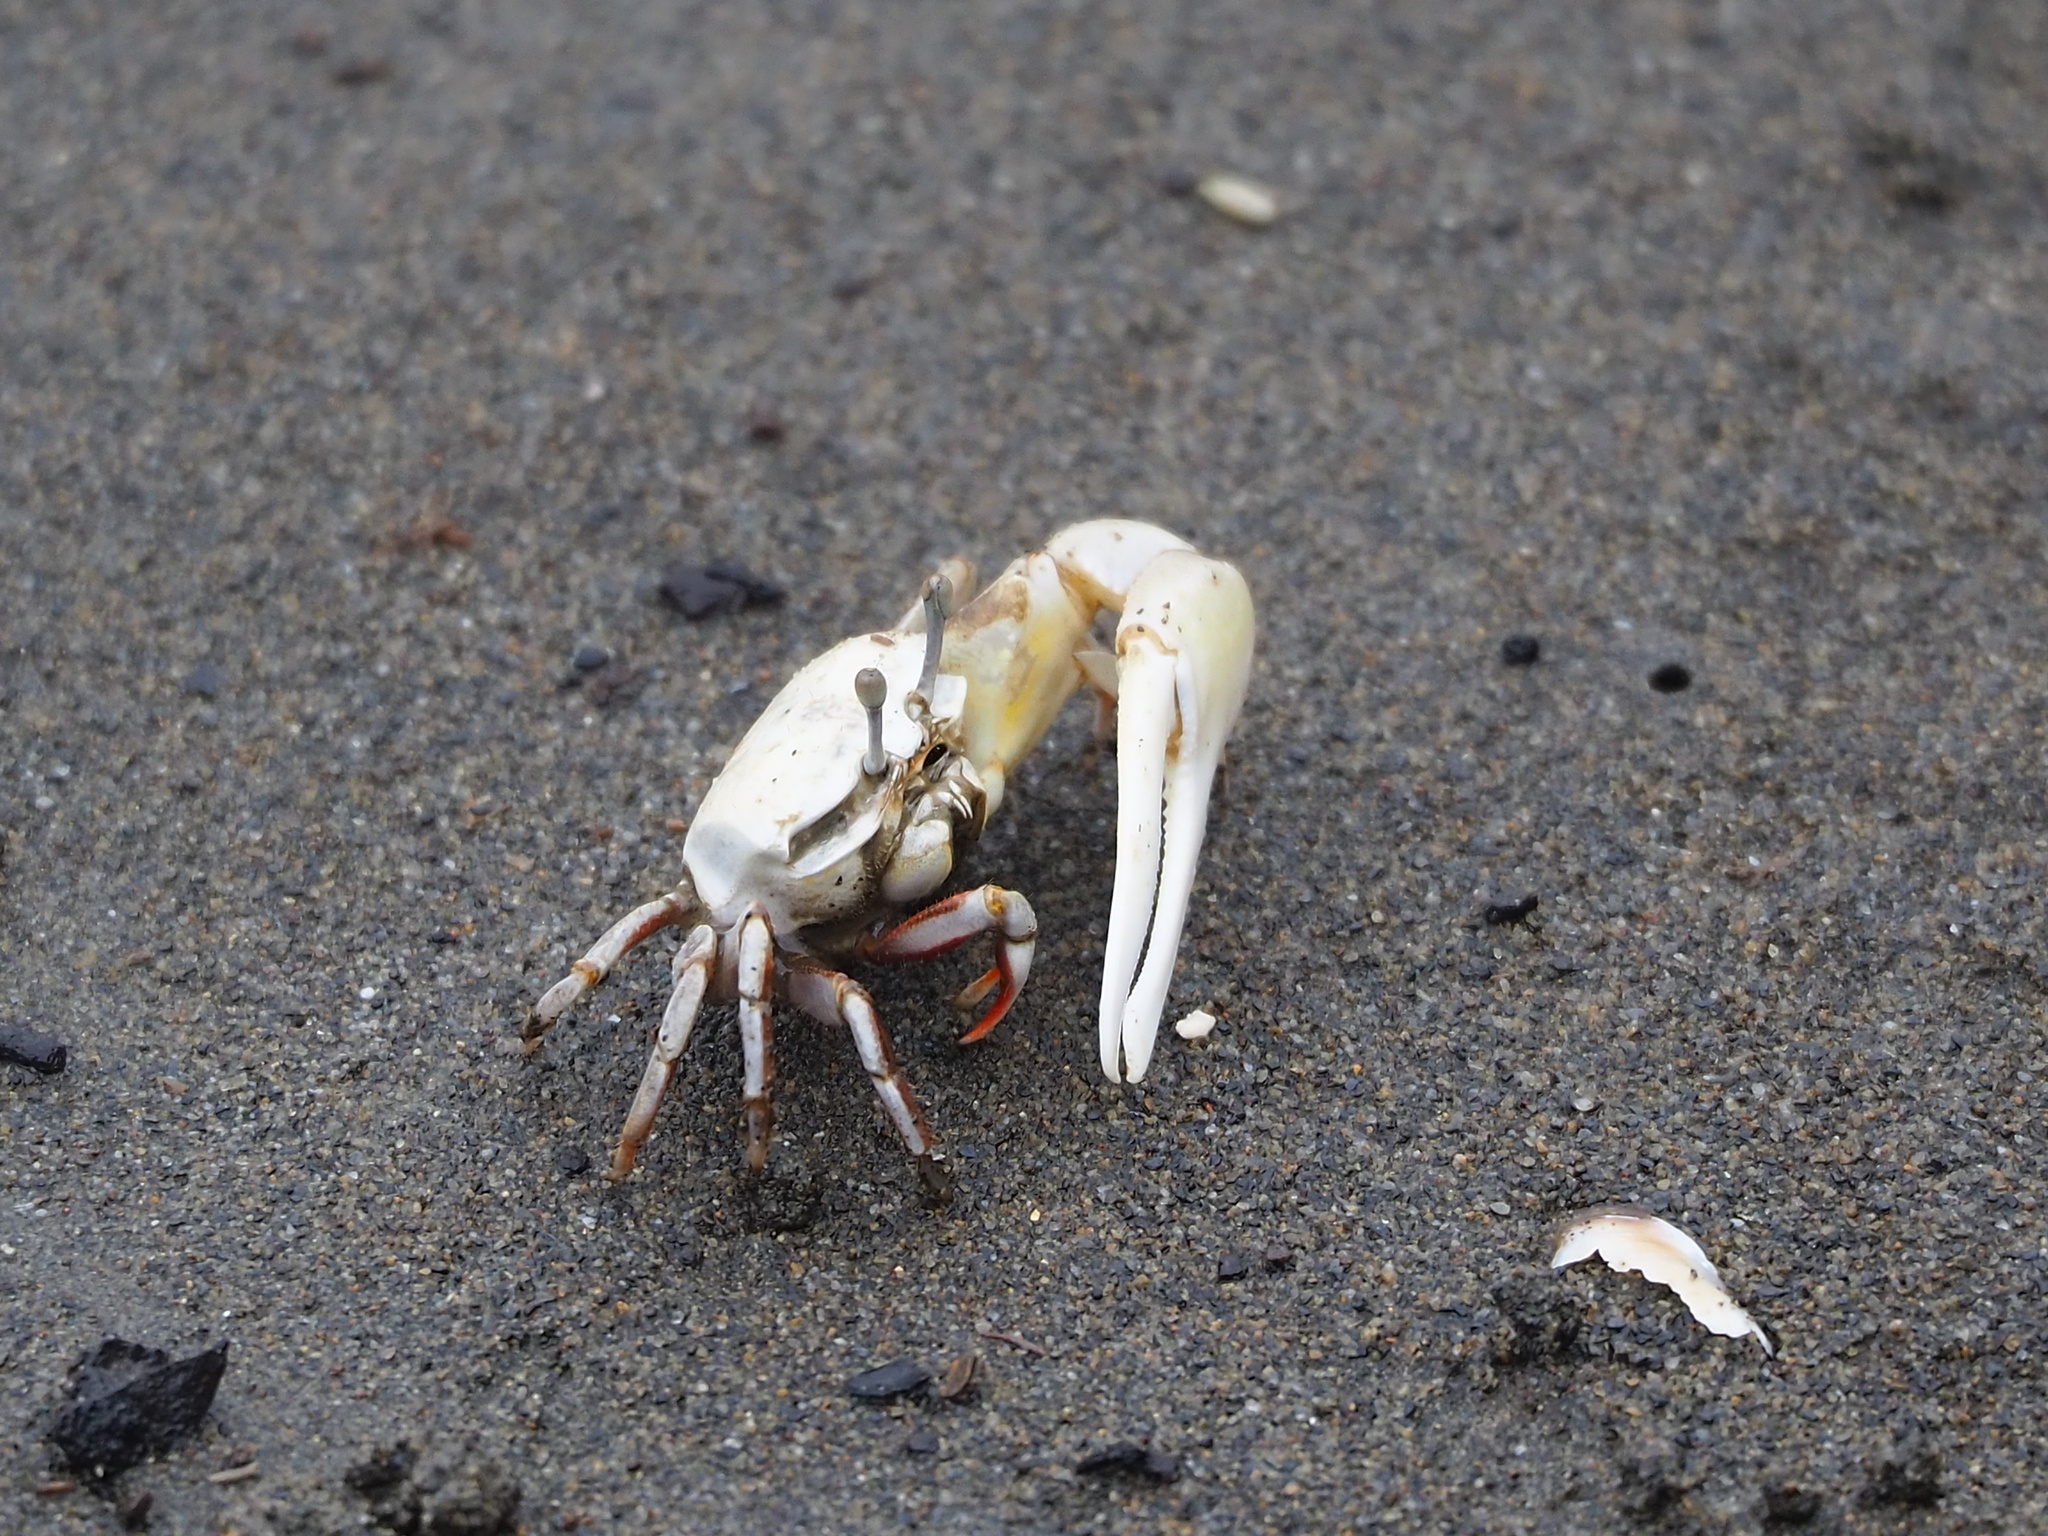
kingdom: Animalia
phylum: Arthropoda
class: Malacostraca
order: Decapoda
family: Ocypodidae
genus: Austruca
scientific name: Austruca lactea
